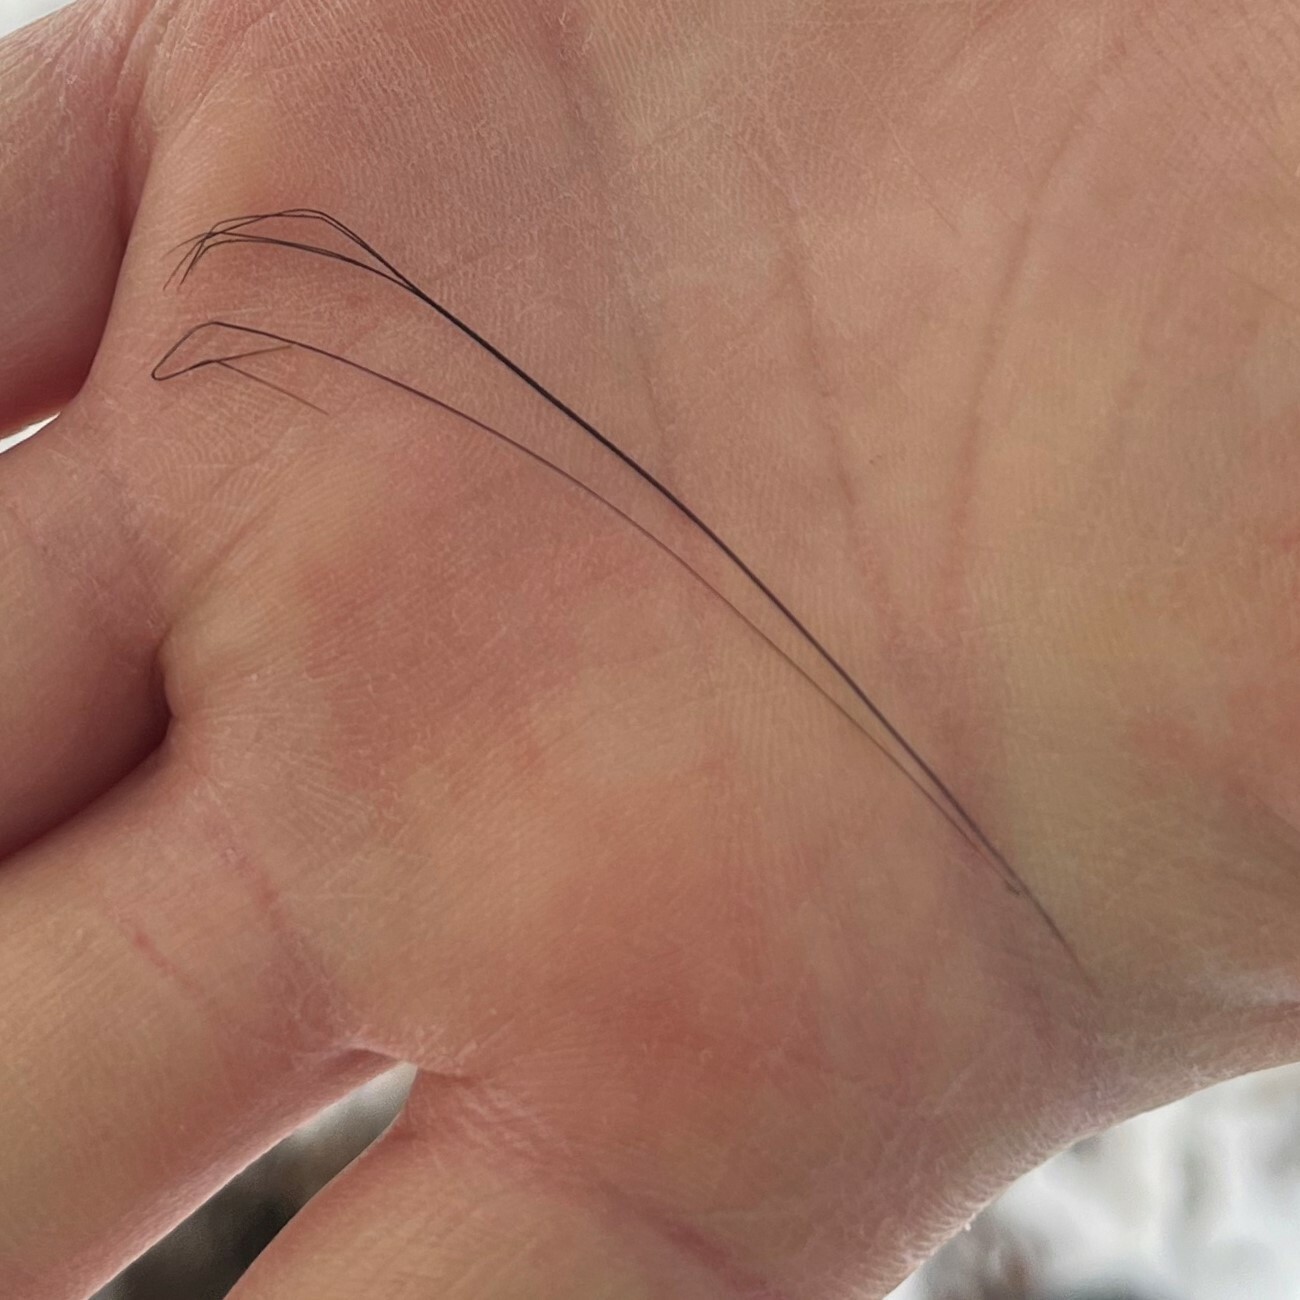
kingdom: Animalia
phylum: Chordata
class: Mammalia
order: Artiodactyla
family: Suidae
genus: Sus
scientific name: Sus scrofa
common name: Wild boar
